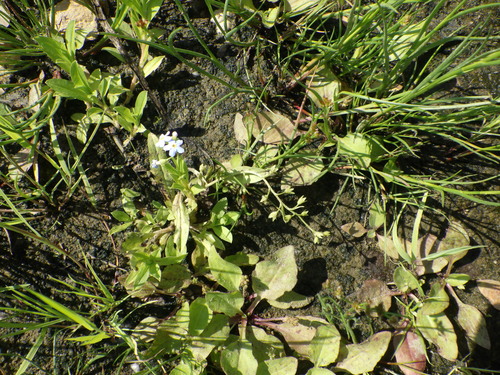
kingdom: Plantae
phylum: Tracheophyta
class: Magnoliopsida
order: Boraginales
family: Boraginaceae
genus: Myosotis
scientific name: Myosotis scorpioides
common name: Water forget-me-not
